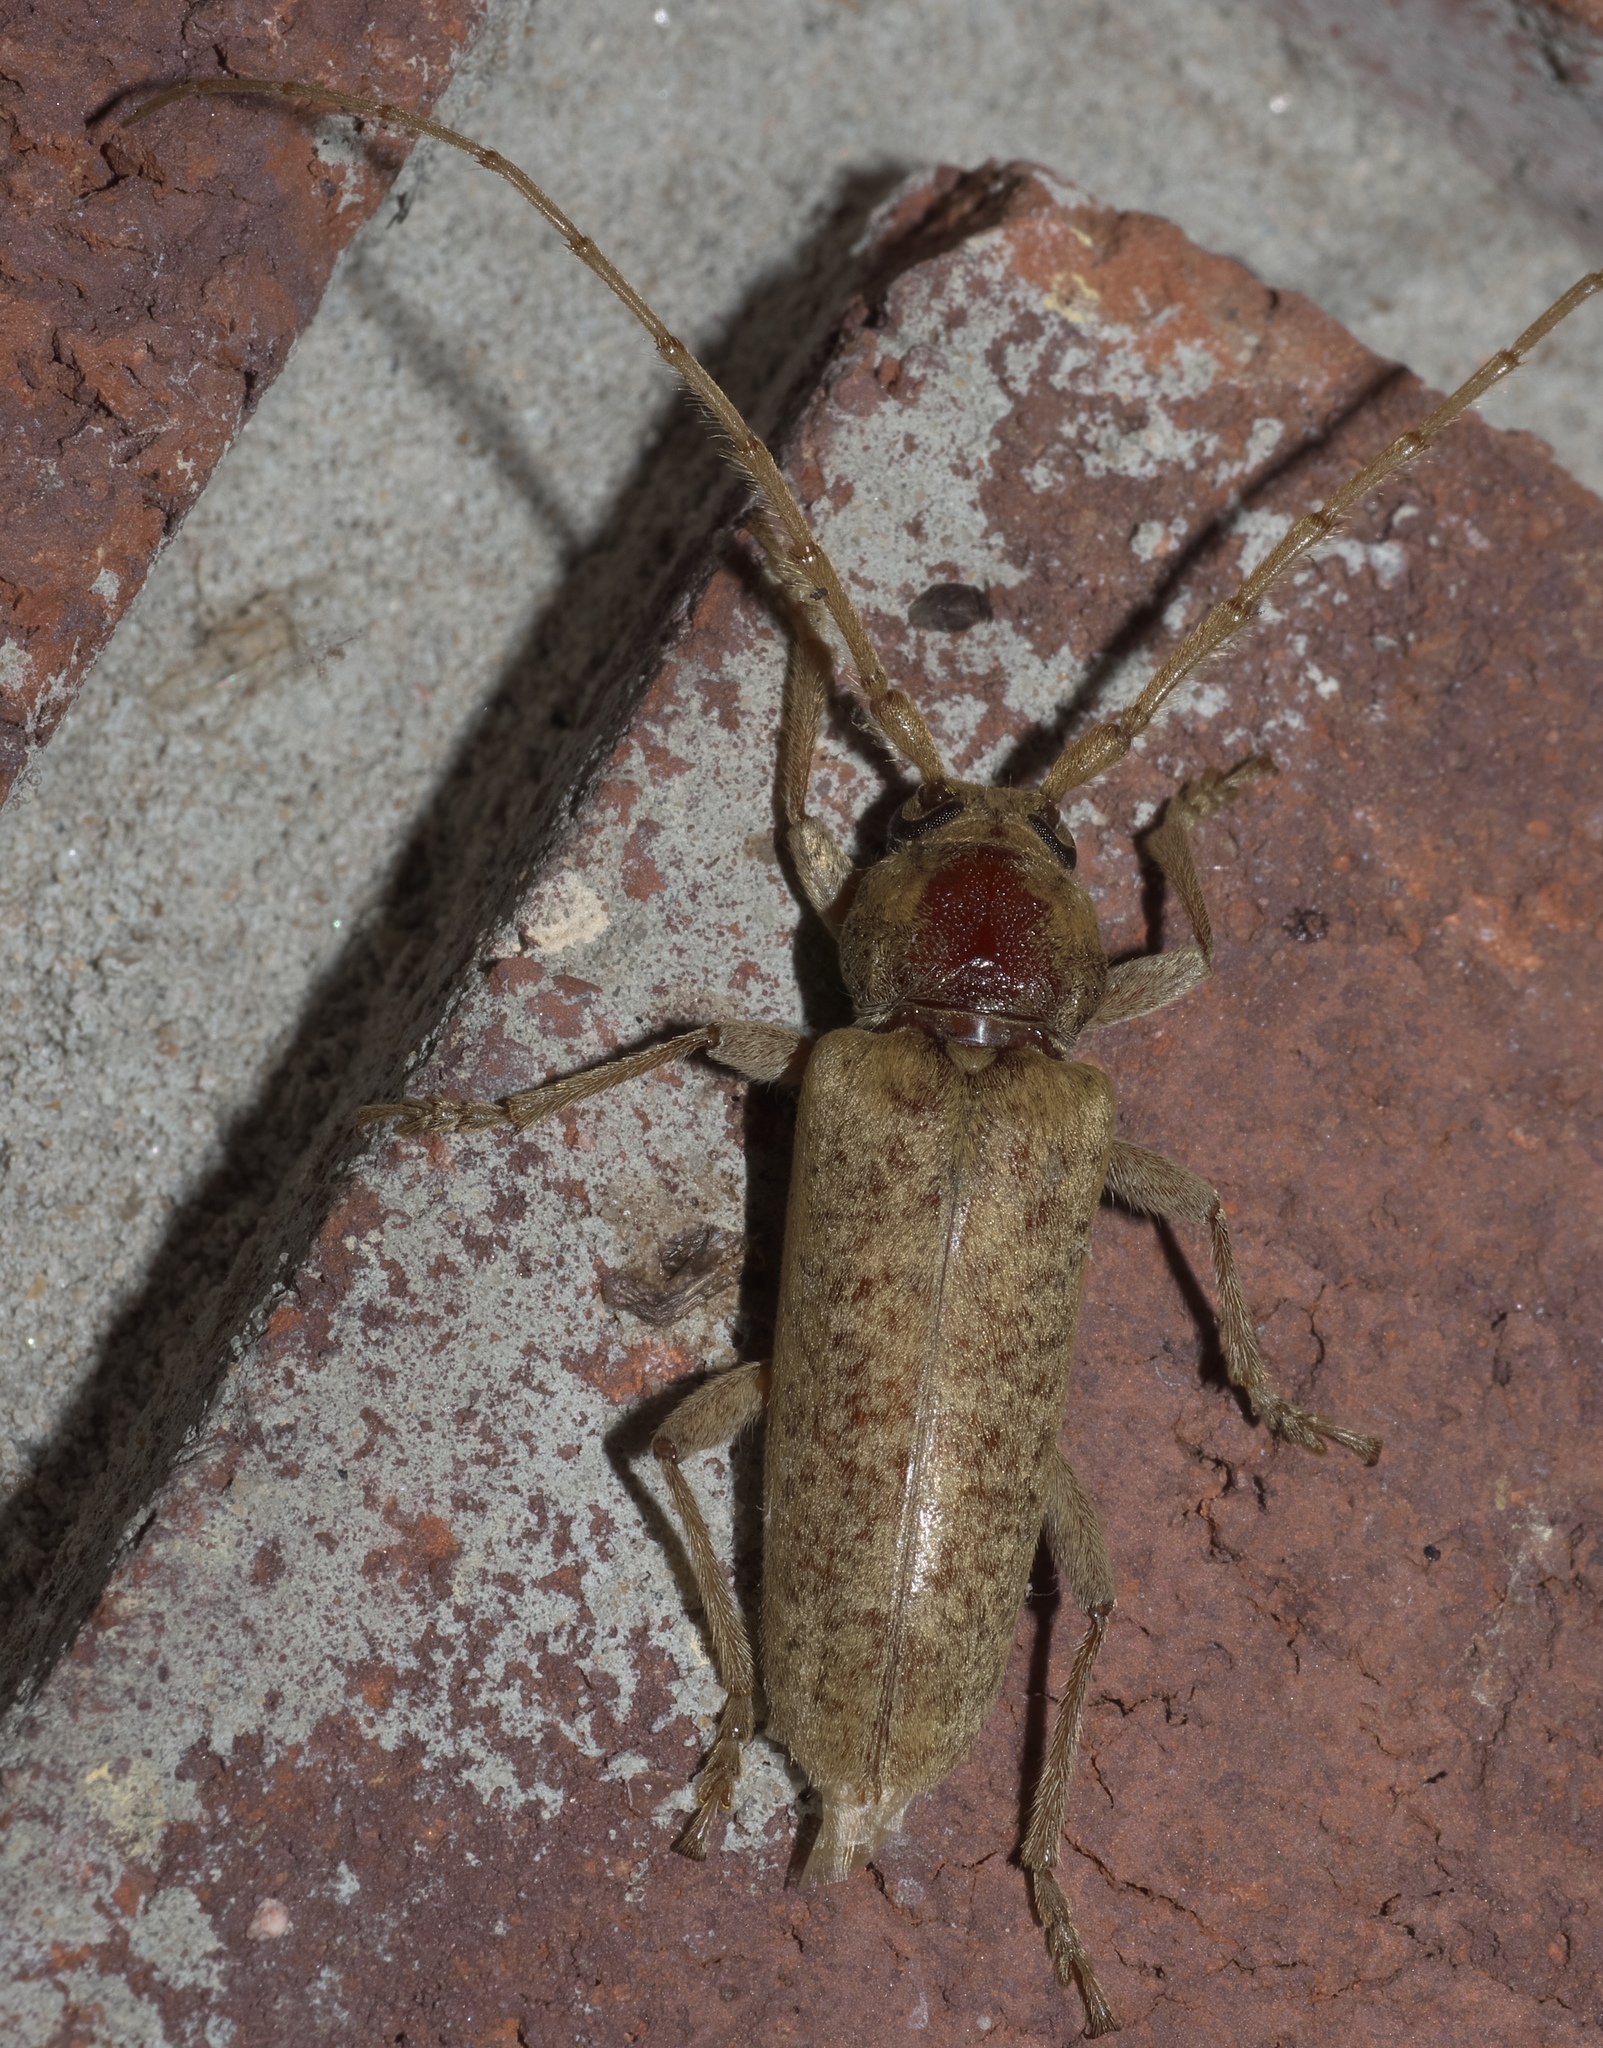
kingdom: Animalia
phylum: Arthropoda
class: Insecta
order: Coleoptera
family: Cerambycidae
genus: Enaphalodes
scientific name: Enaphalodes rufulus
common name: Red oak borer
